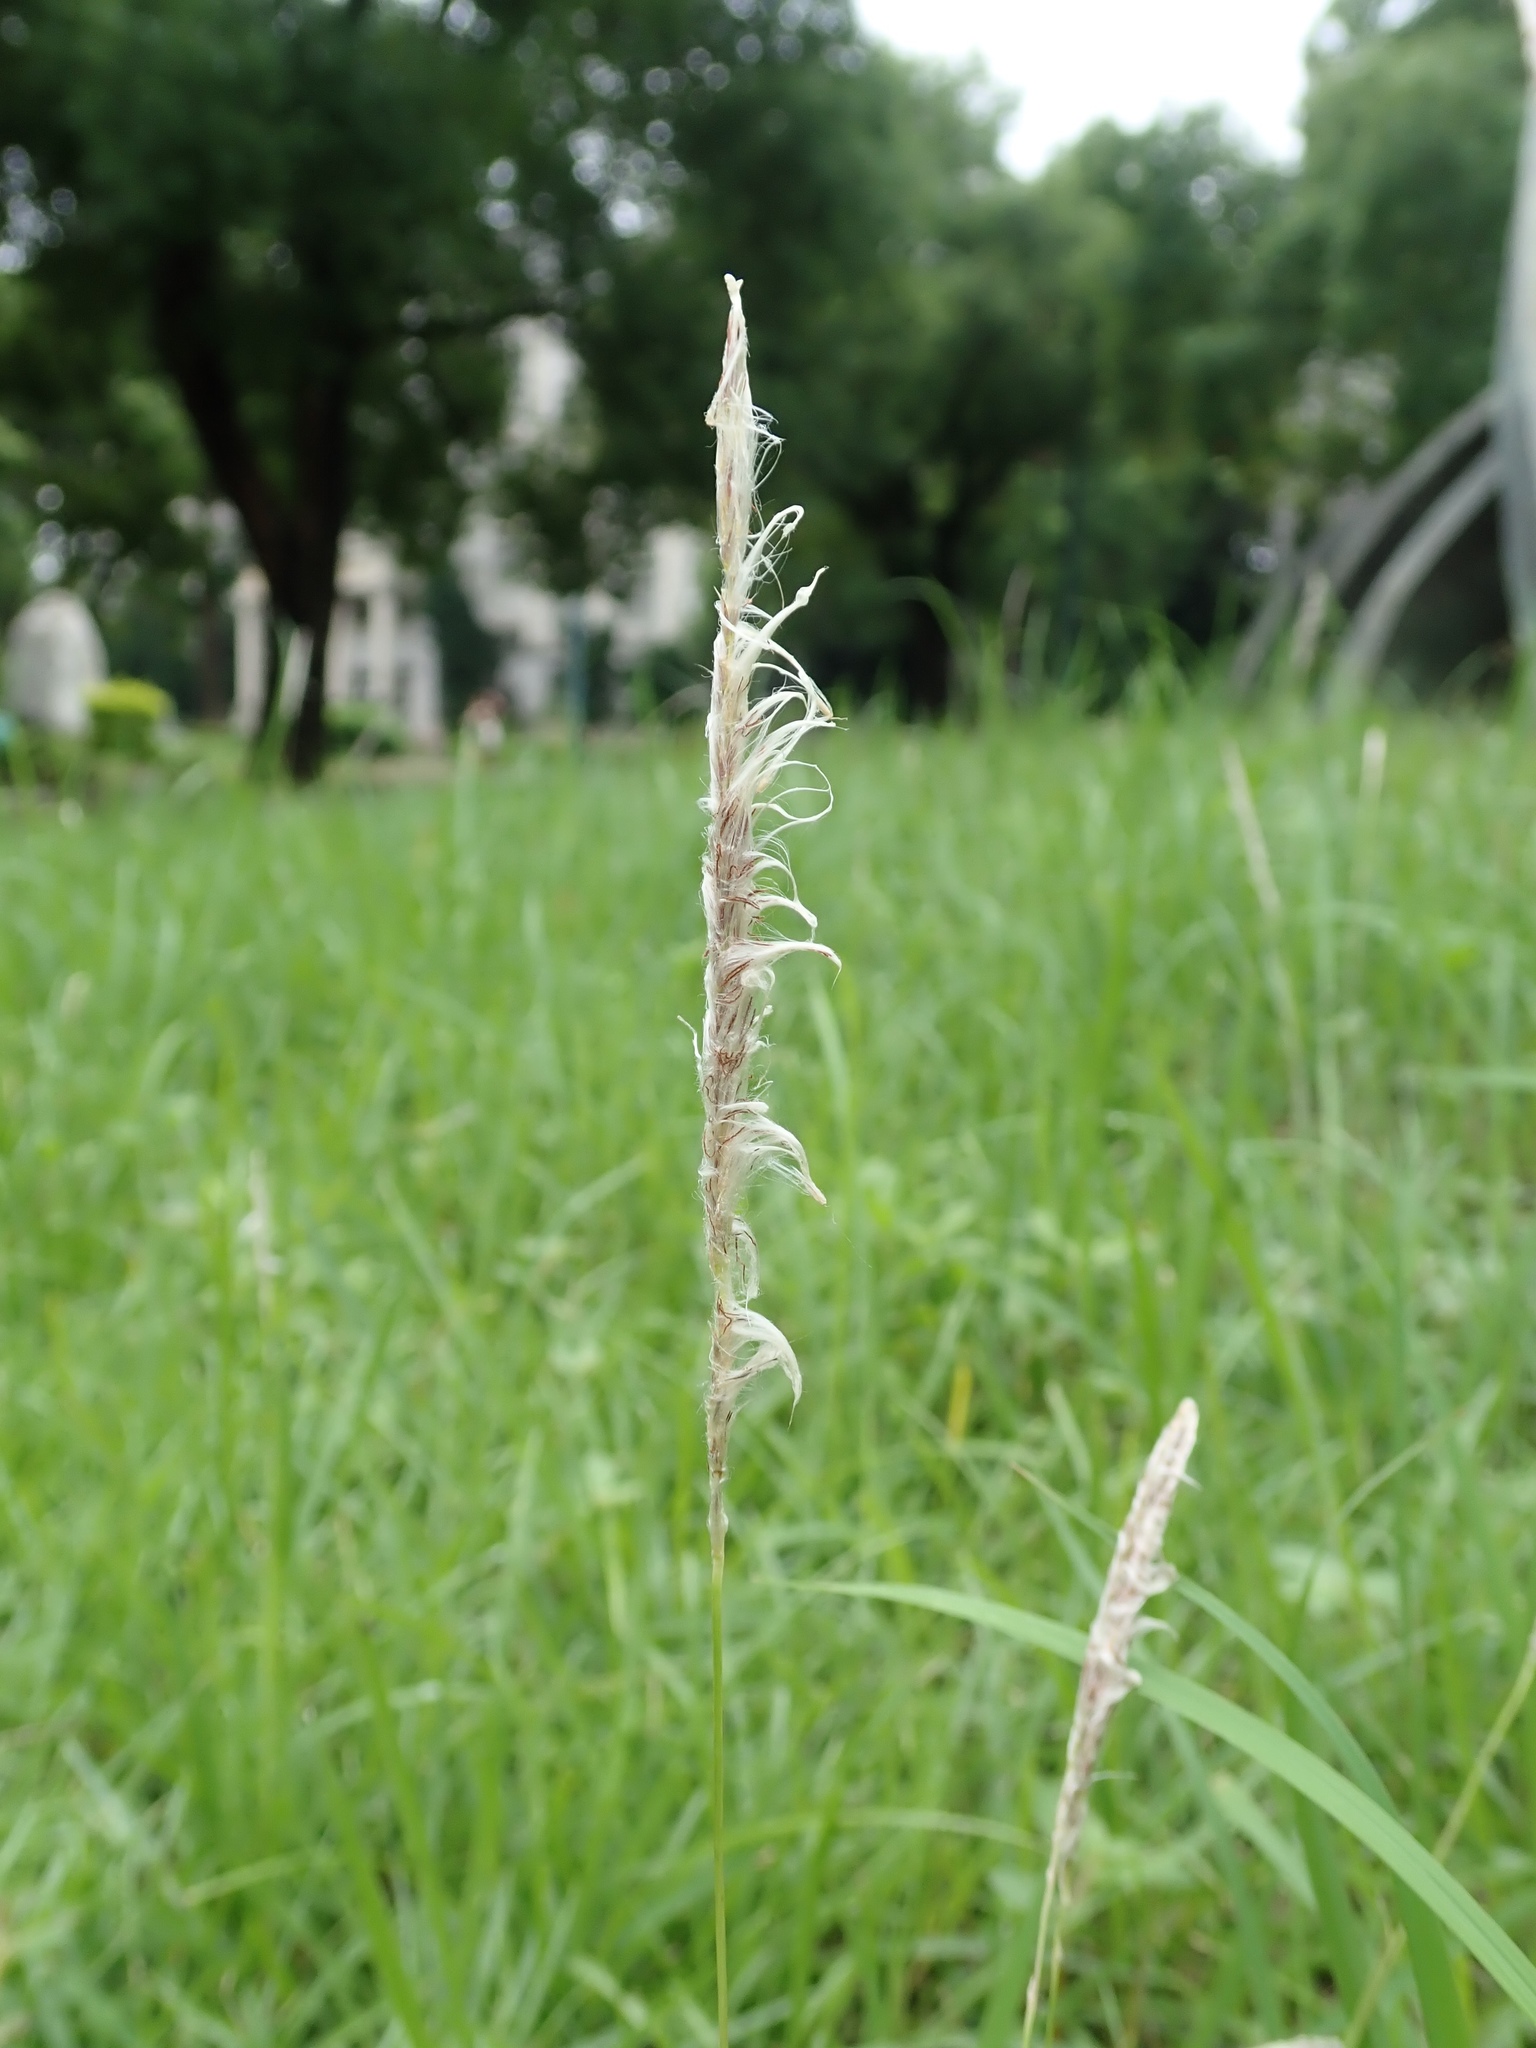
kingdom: Plantae
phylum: Tracheophyta
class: Liliopsida
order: Poales
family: Poaceae
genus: Imperata
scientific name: Imperata cylindrica
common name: Cogongrass
